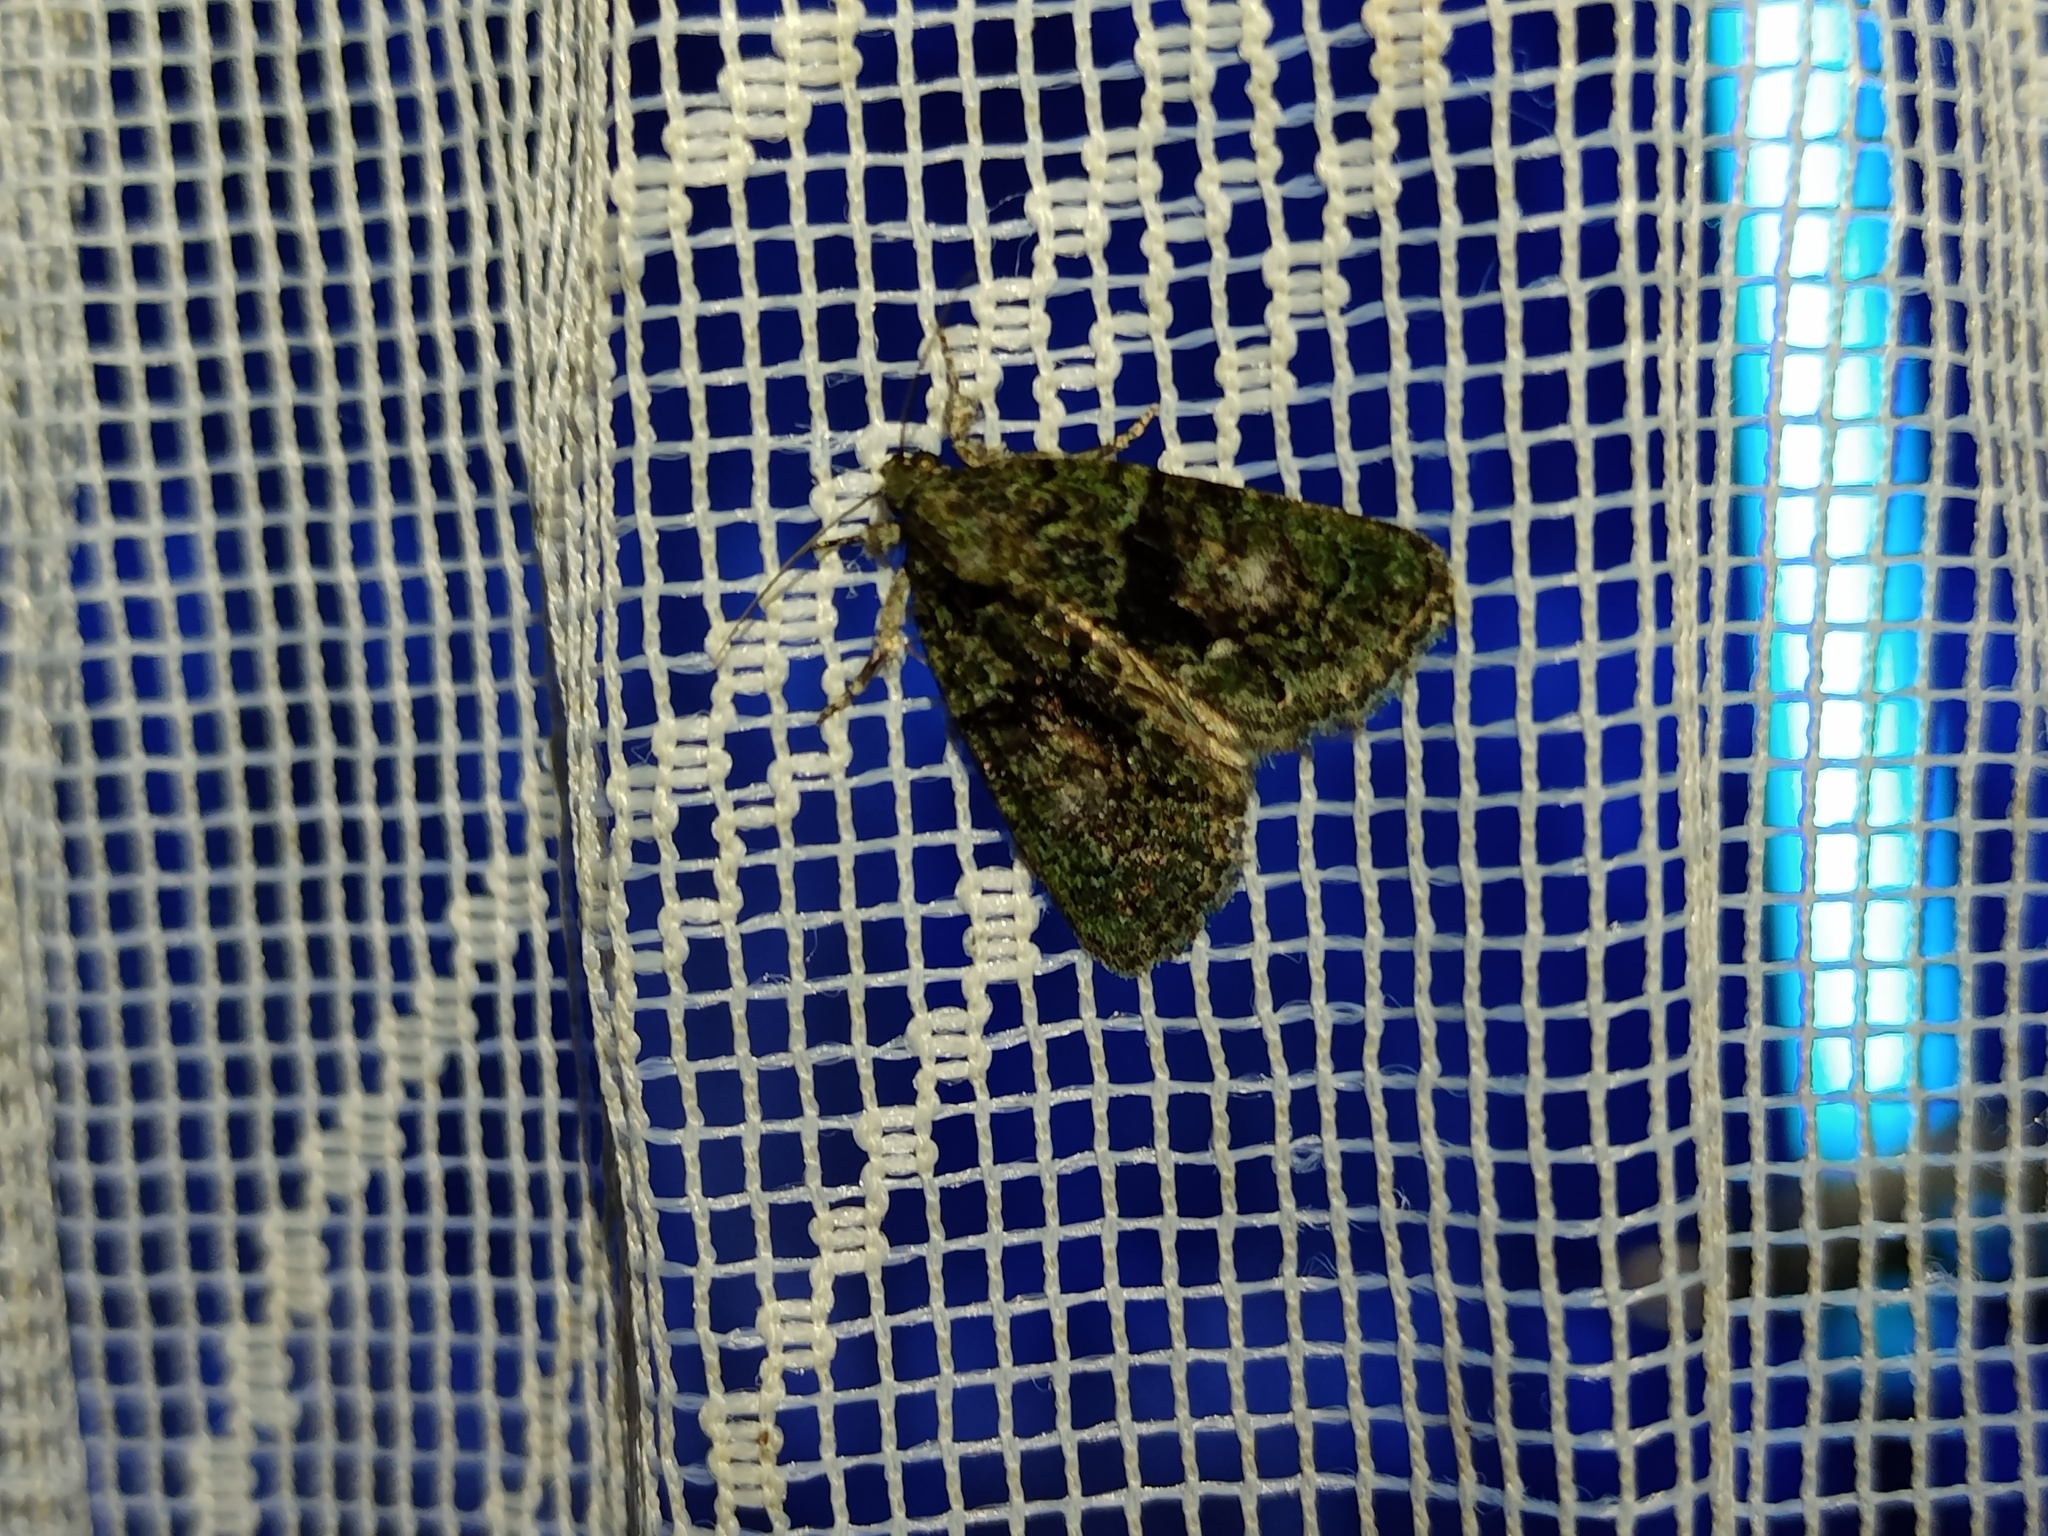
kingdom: Animalia
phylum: Arthropoda
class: Insecta
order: Lepidoptera
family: Noctuidae
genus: Cryphia
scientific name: Cryphia algae
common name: Tree-lichen beauty
